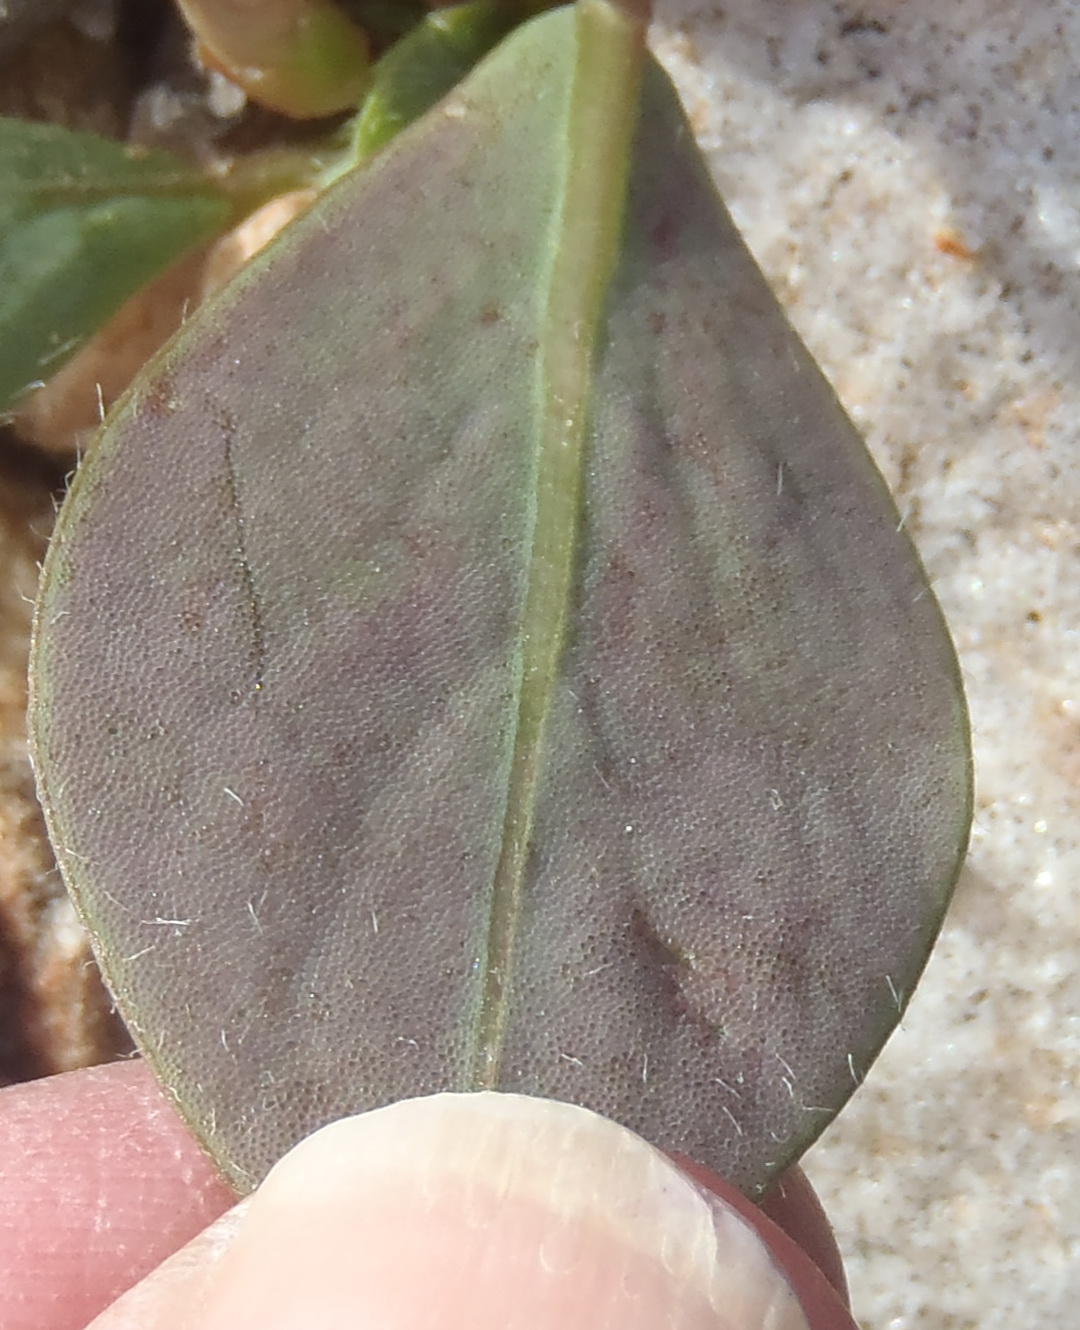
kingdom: Plantae
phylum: Tracheophyta
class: Magnoliopsida
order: Oxalidales
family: Oxalidaceae
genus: Oxalis
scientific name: Oxalis nortieri
